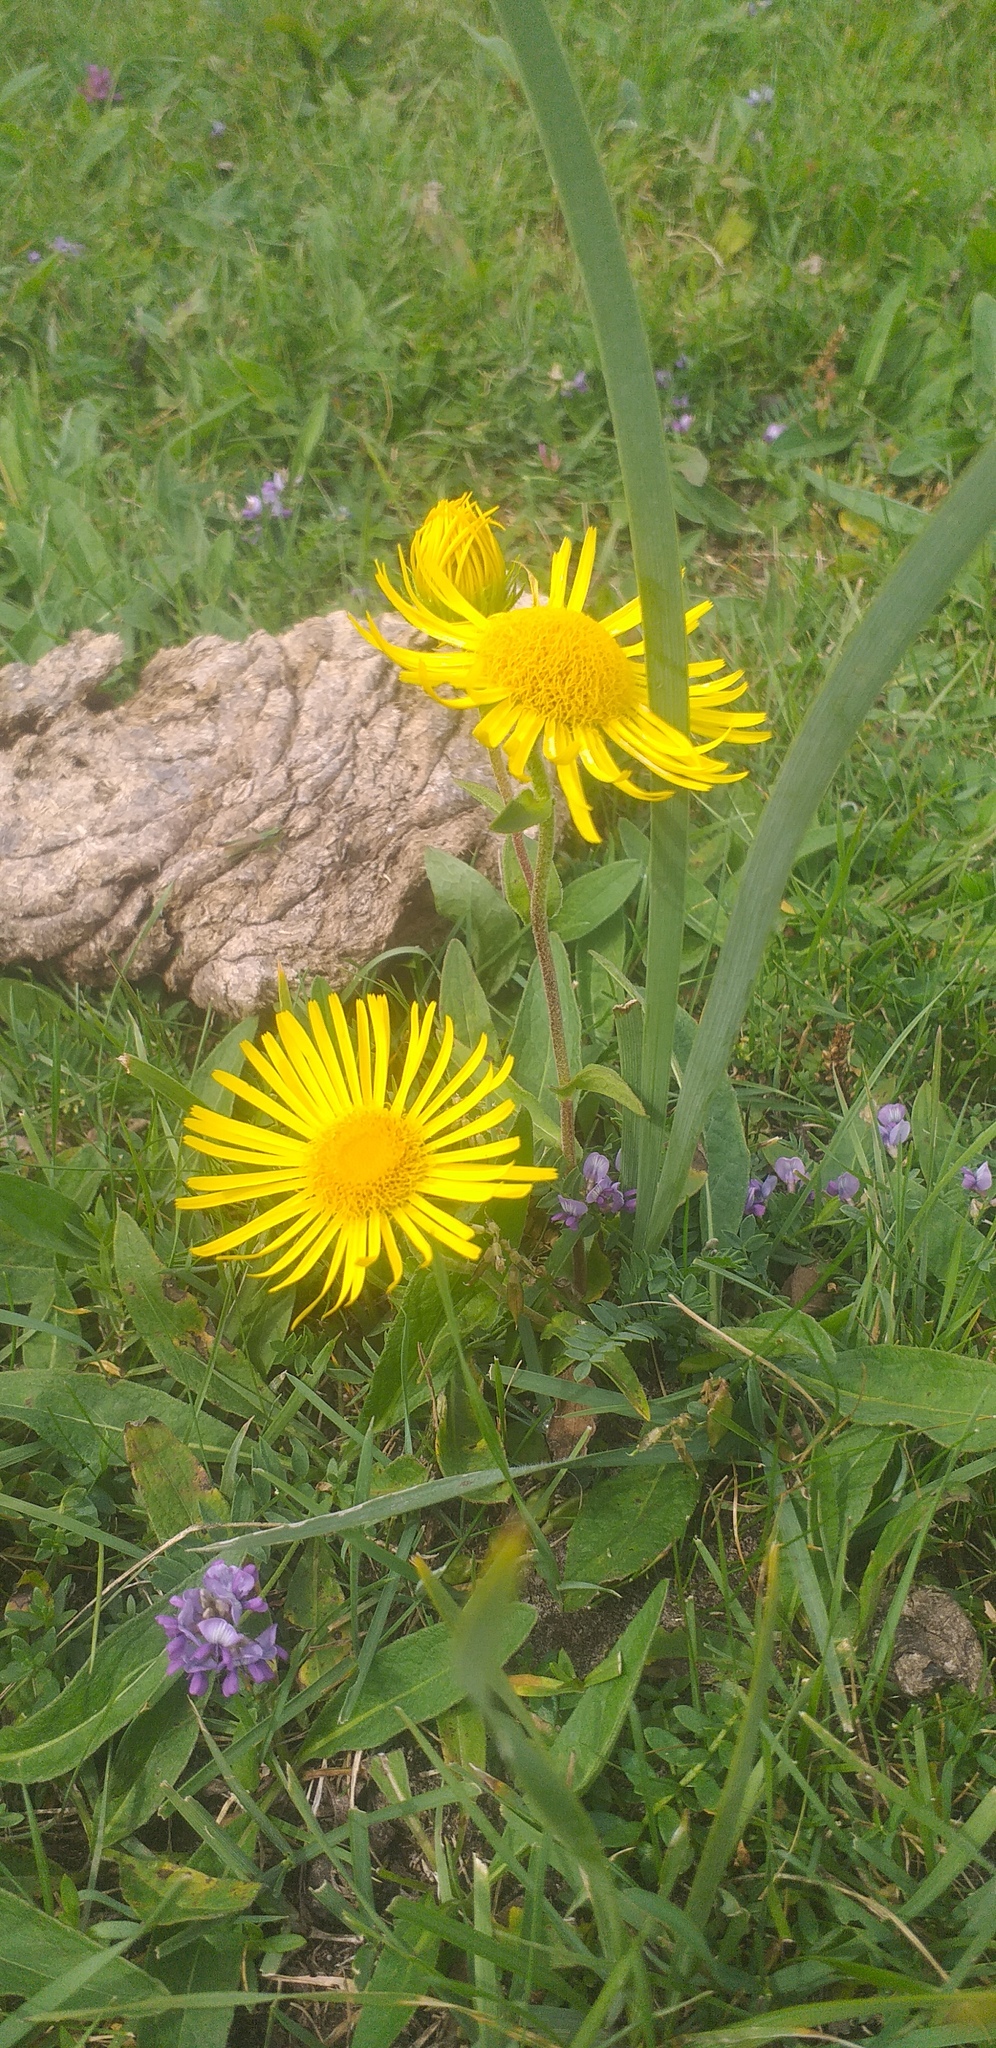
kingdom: Plantae
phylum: Tracheophyta
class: Magnoliopsida
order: Asterales
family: Asteraceae
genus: Pentanema
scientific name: Pentanema britannicum
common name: British elecampane
